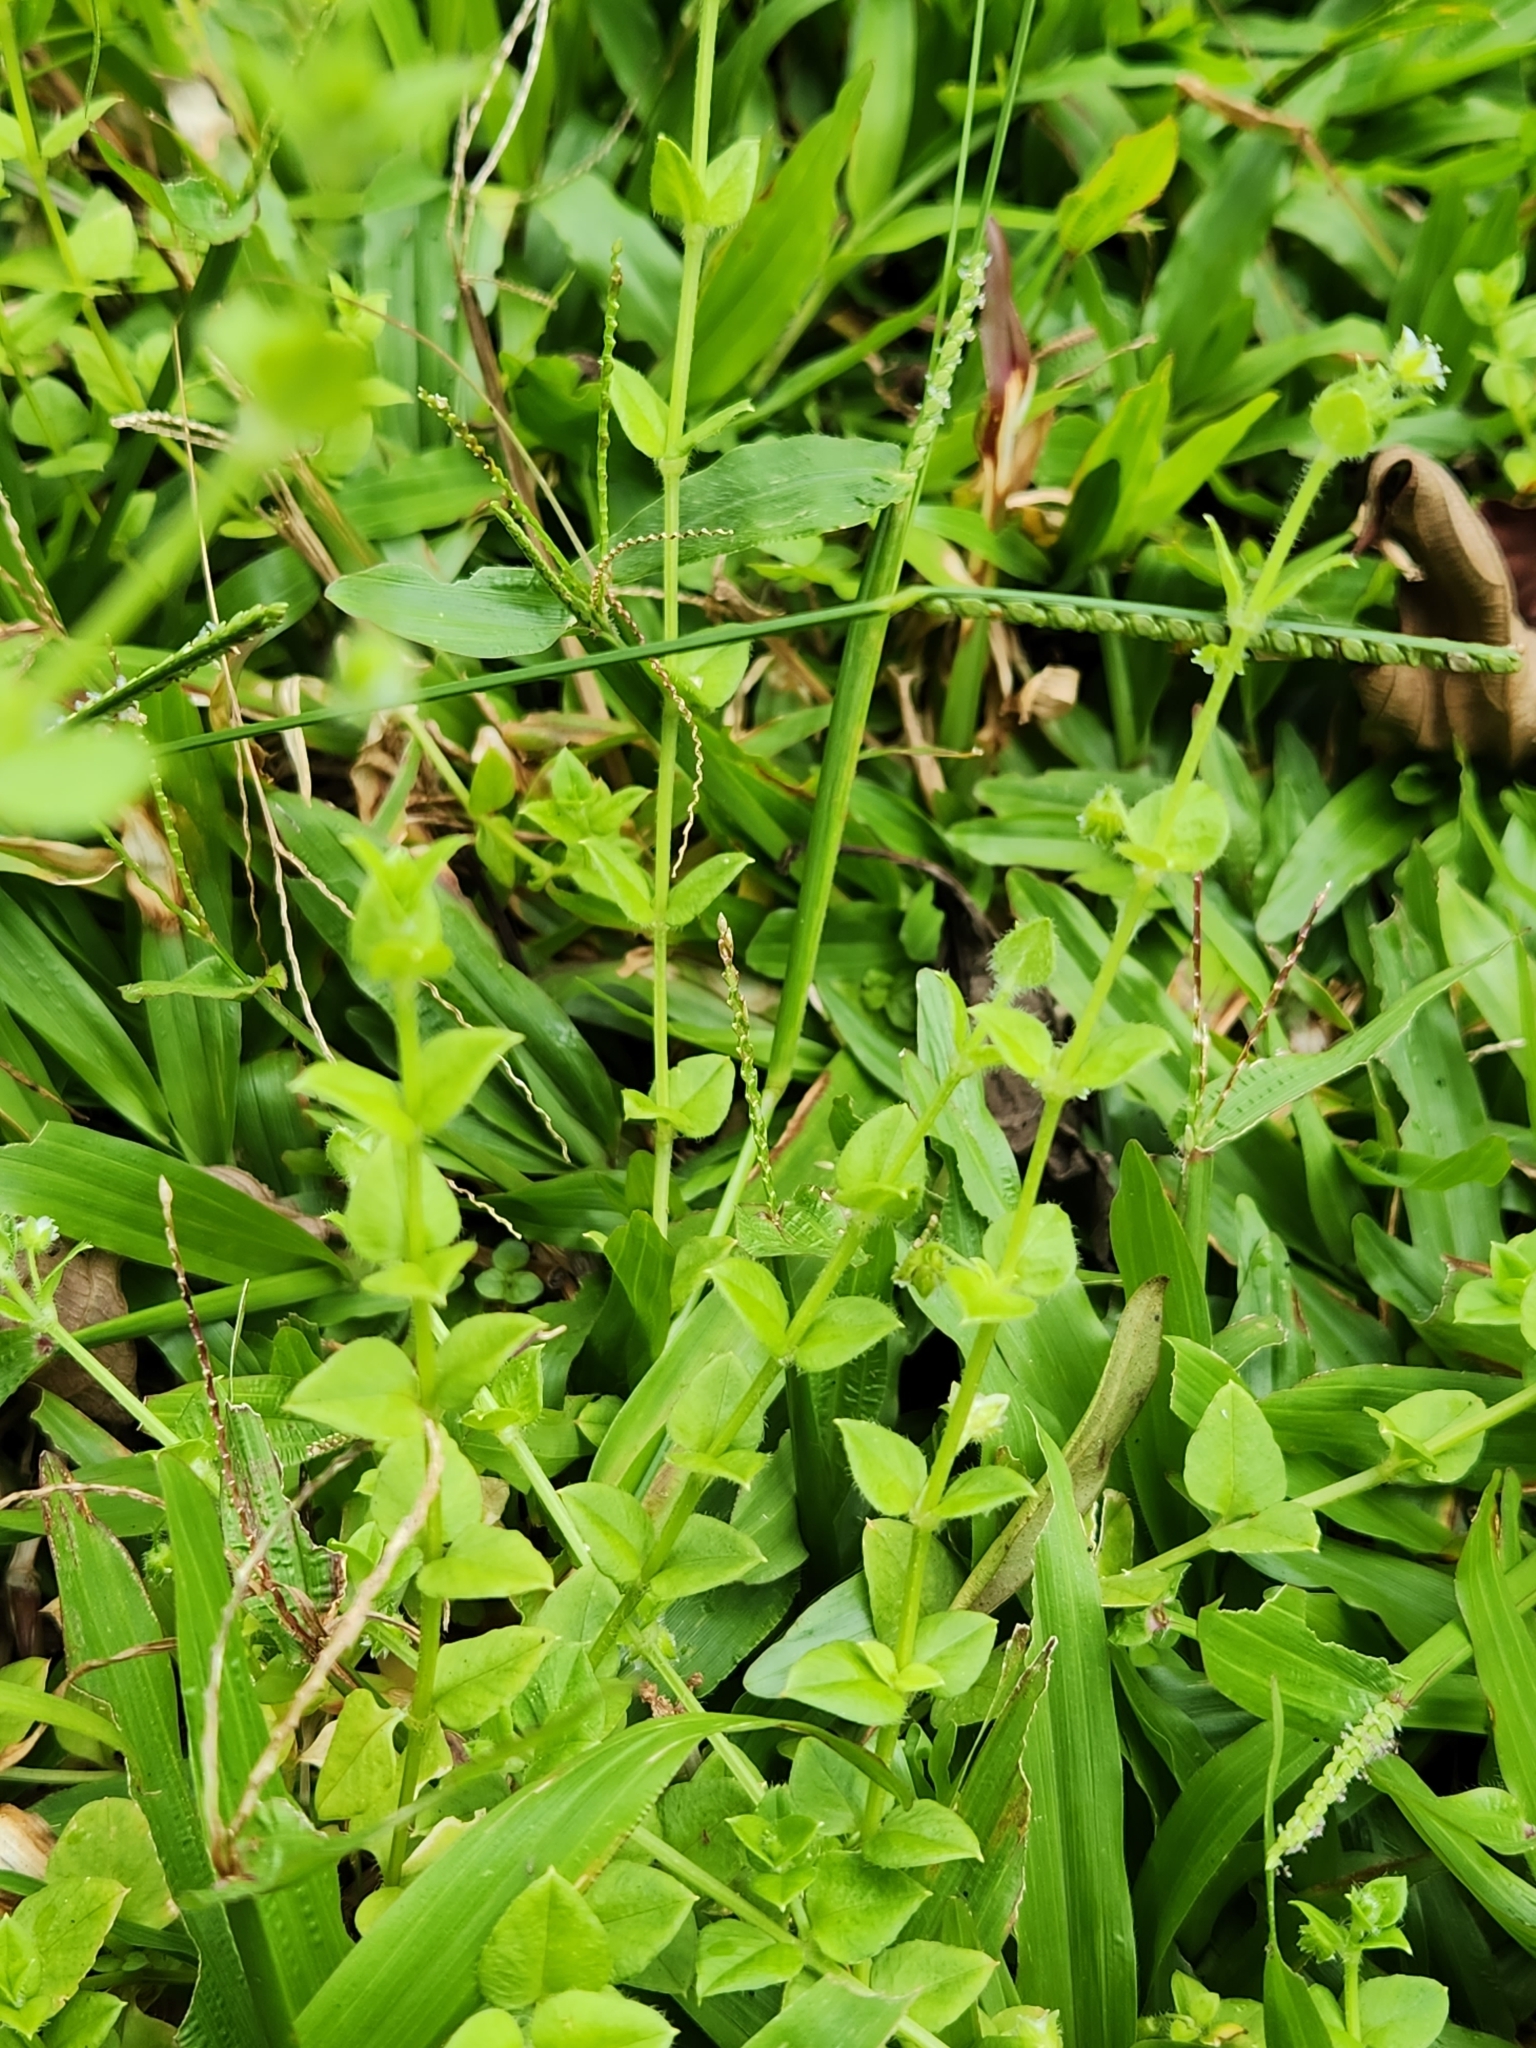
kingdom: Plantae
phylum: Tracheophyta
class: Magnoliopsida
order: Caryophyllales
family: Caryophyllaceae
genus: Drymaria
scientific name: Drymaria cordata
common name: Whitesnow
